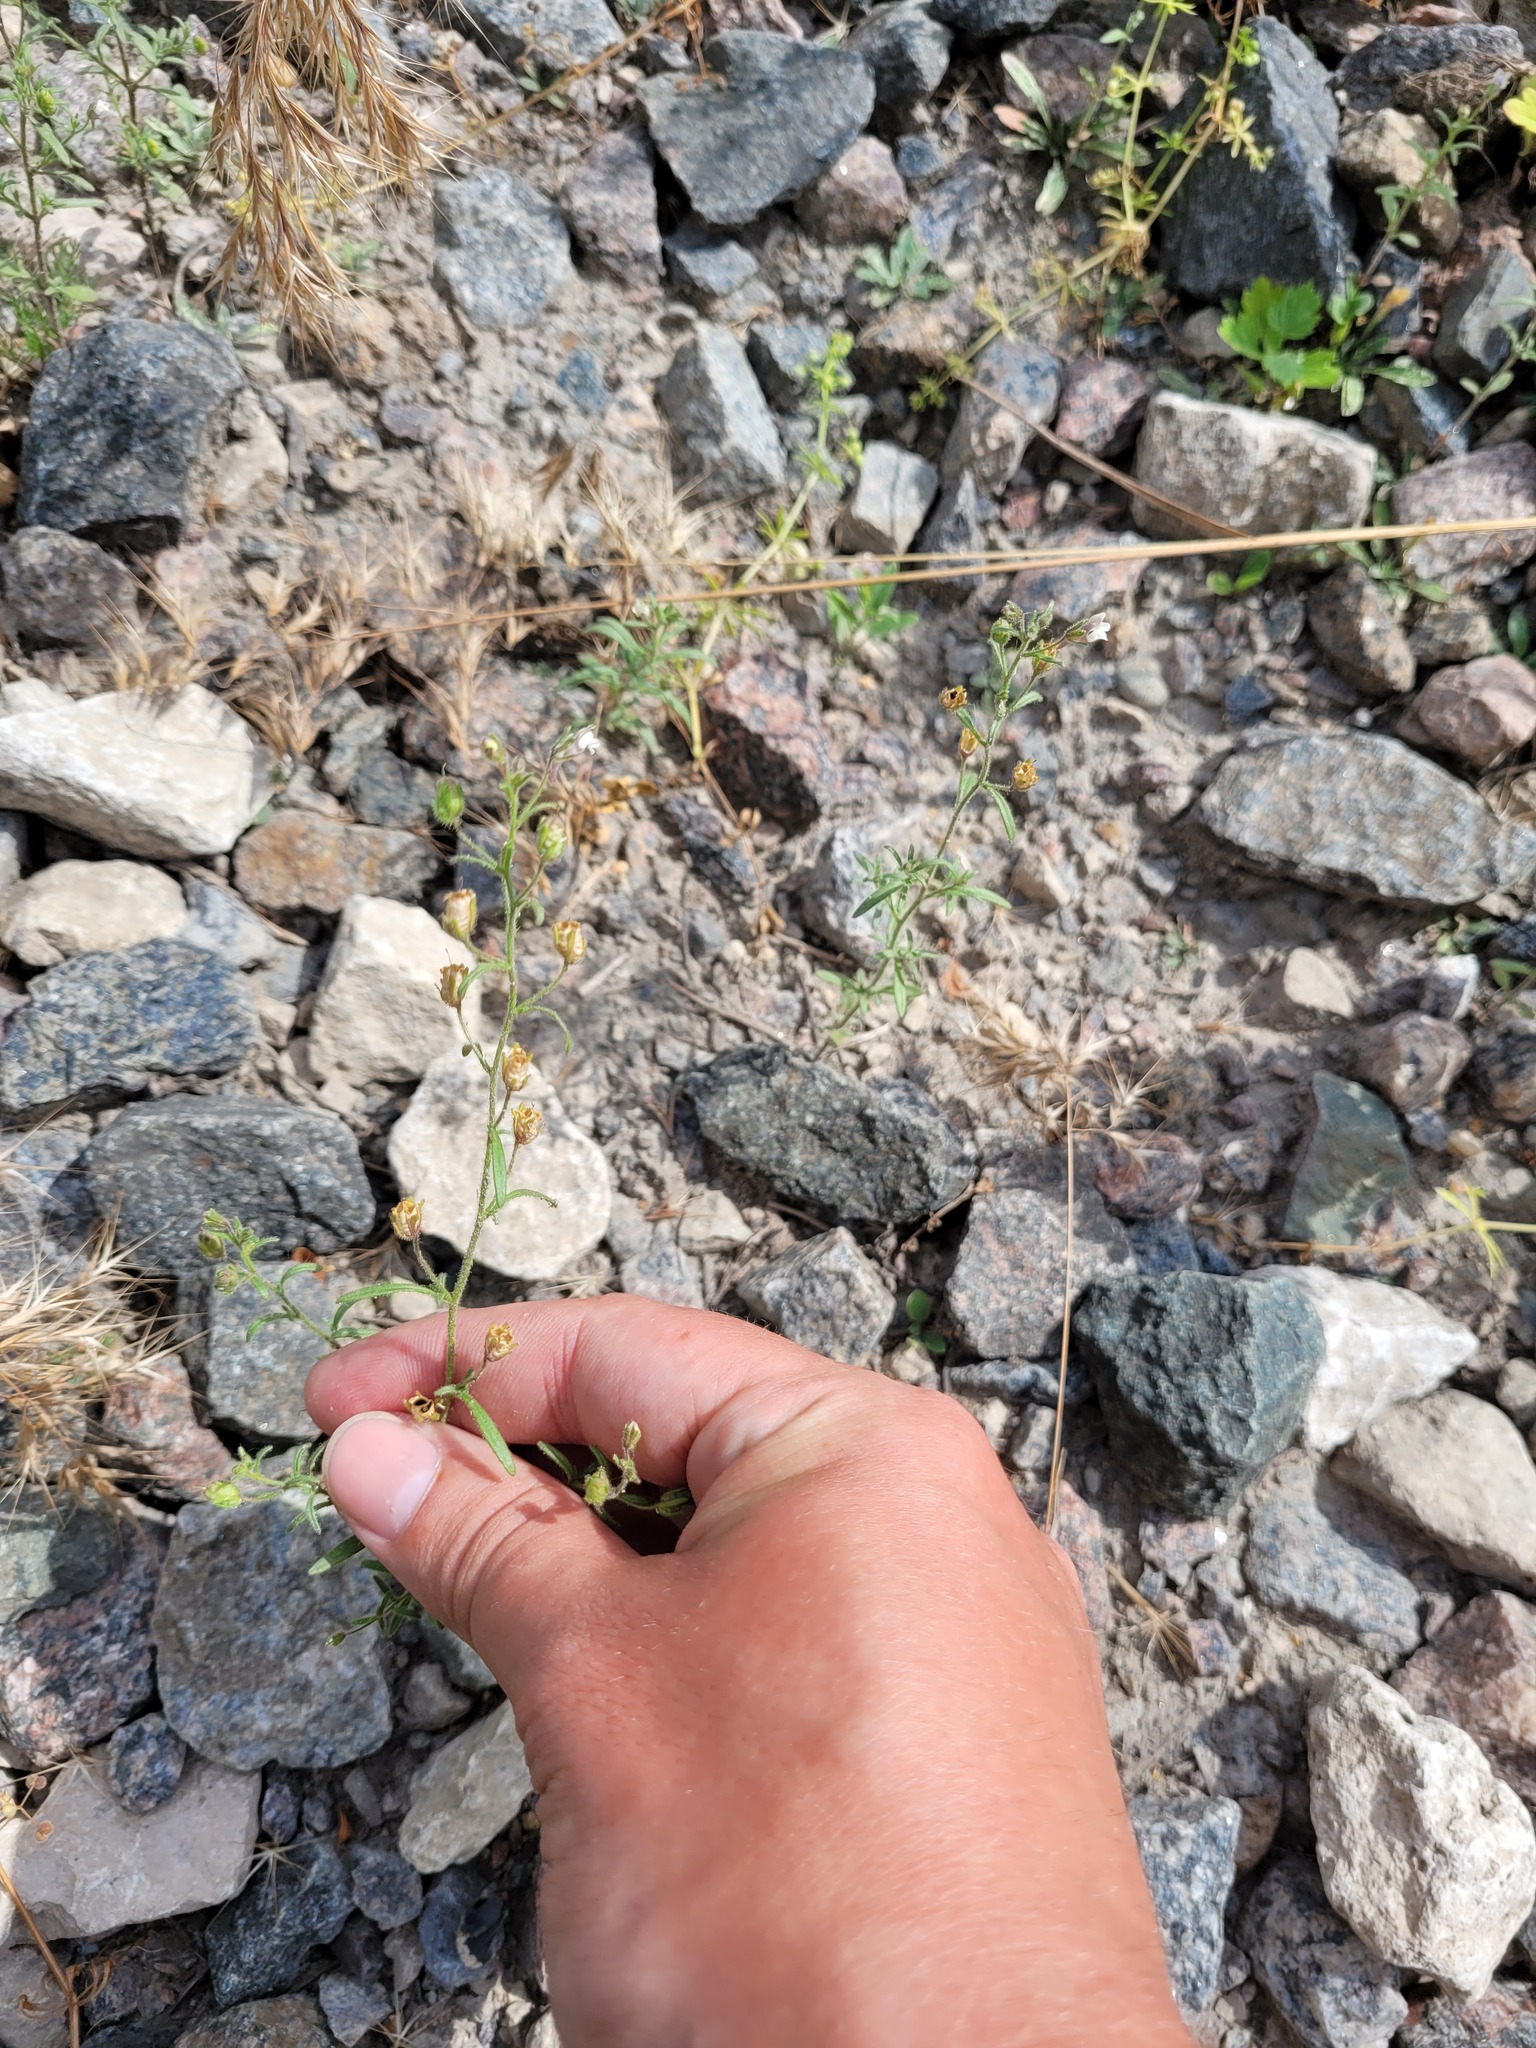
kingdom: Plantae
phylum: Tracheophyta
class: Magnoliopsida
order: Lamiales
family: Plantaginaceae
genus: Chaenorhinum
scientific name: Chaenorhinum minus
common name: Dwarf snapdragon
